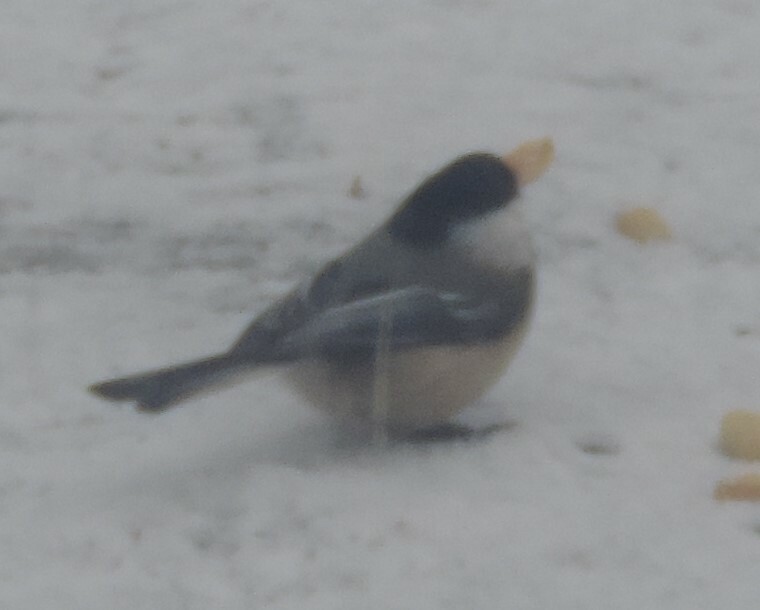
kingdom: Animalia
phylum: Chordata
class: Aves
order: Passeriformes
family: Paridae
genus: Poecile
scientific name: Poecile atricapillus
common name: Black-capped chickadee
